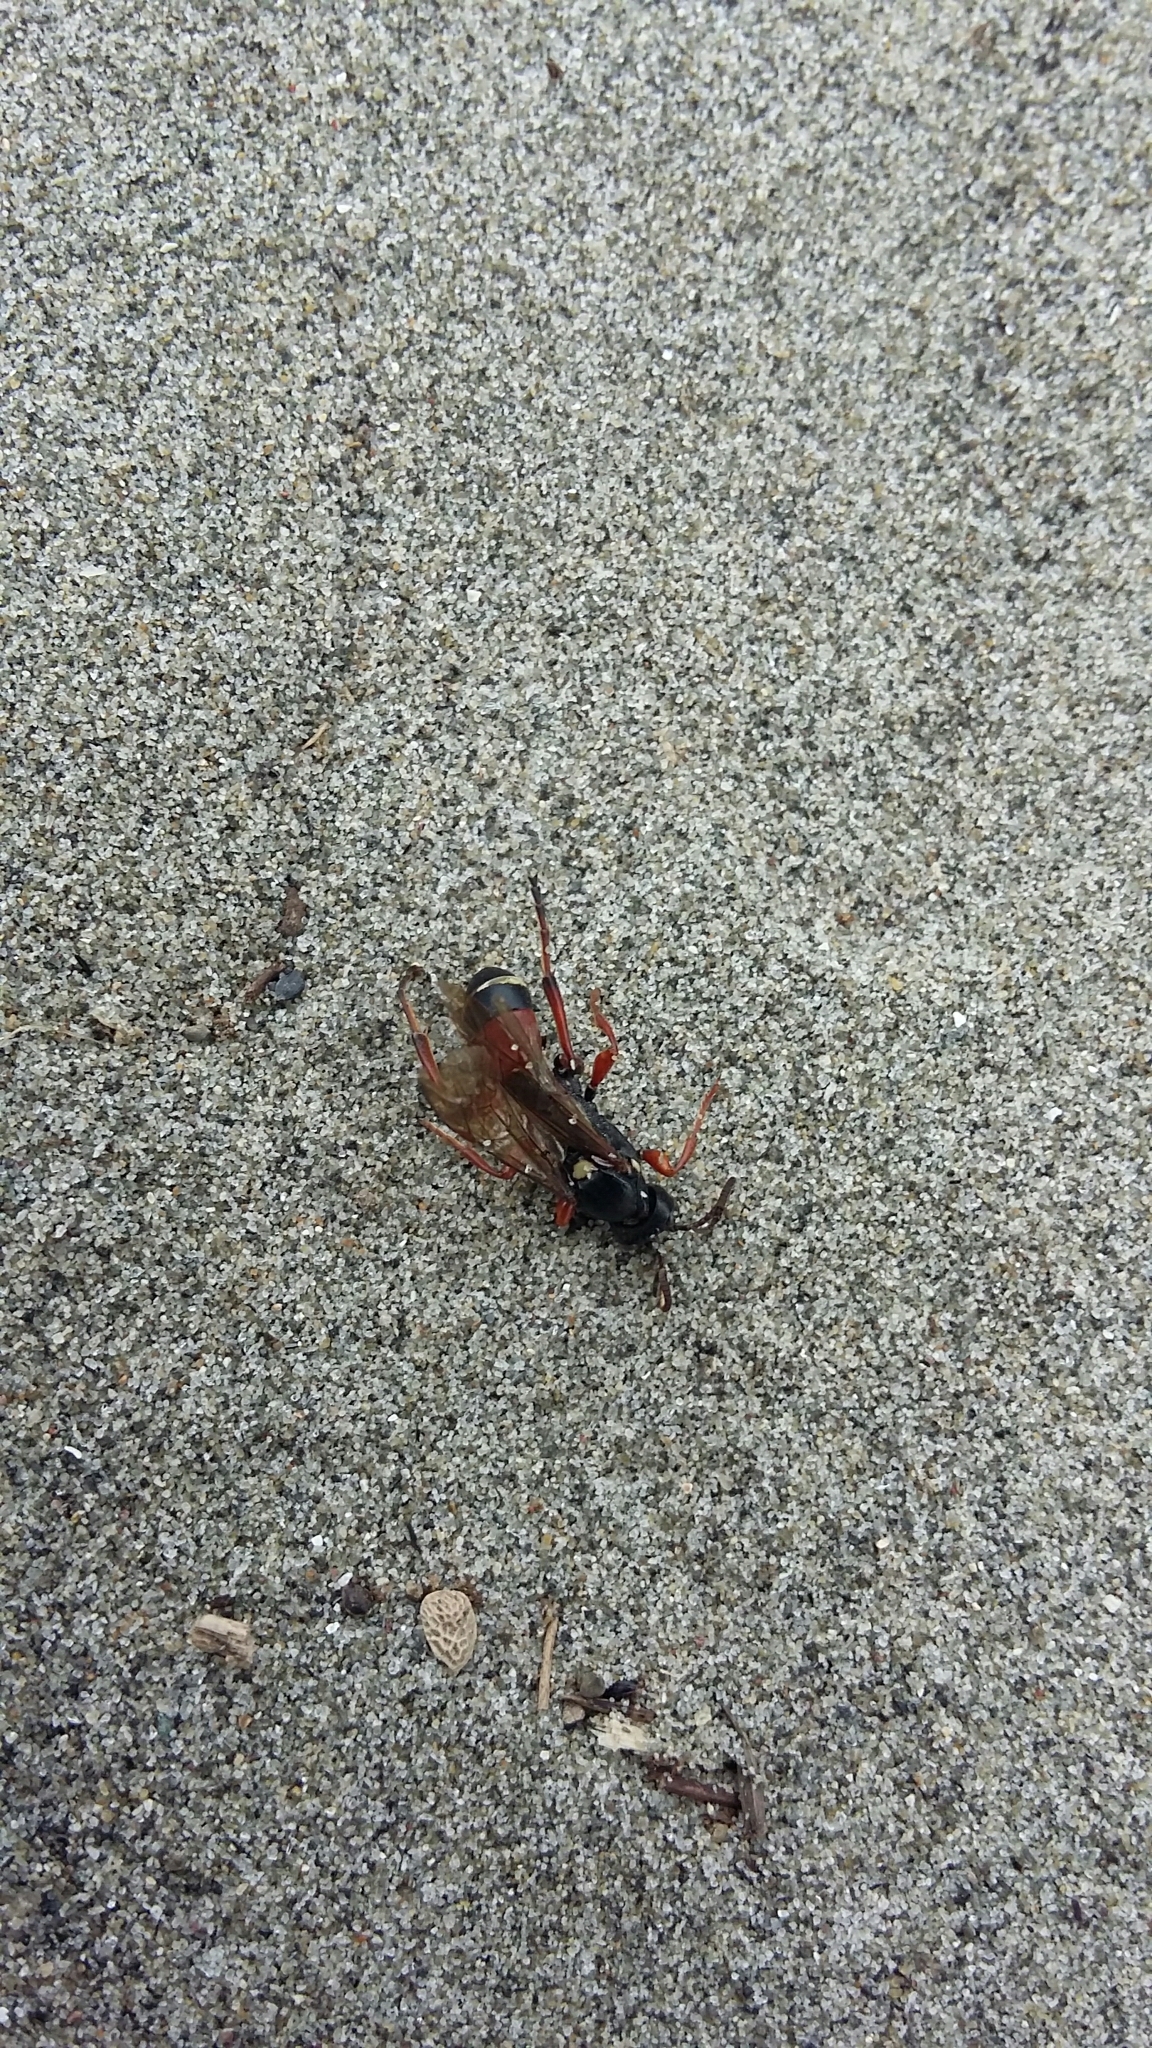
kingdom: Animalia
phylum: Arthropoda
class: Insecta
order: Hymenoptera
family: Ichneumonidae
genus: Ichneumon
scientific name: Ichneumon promissorius
